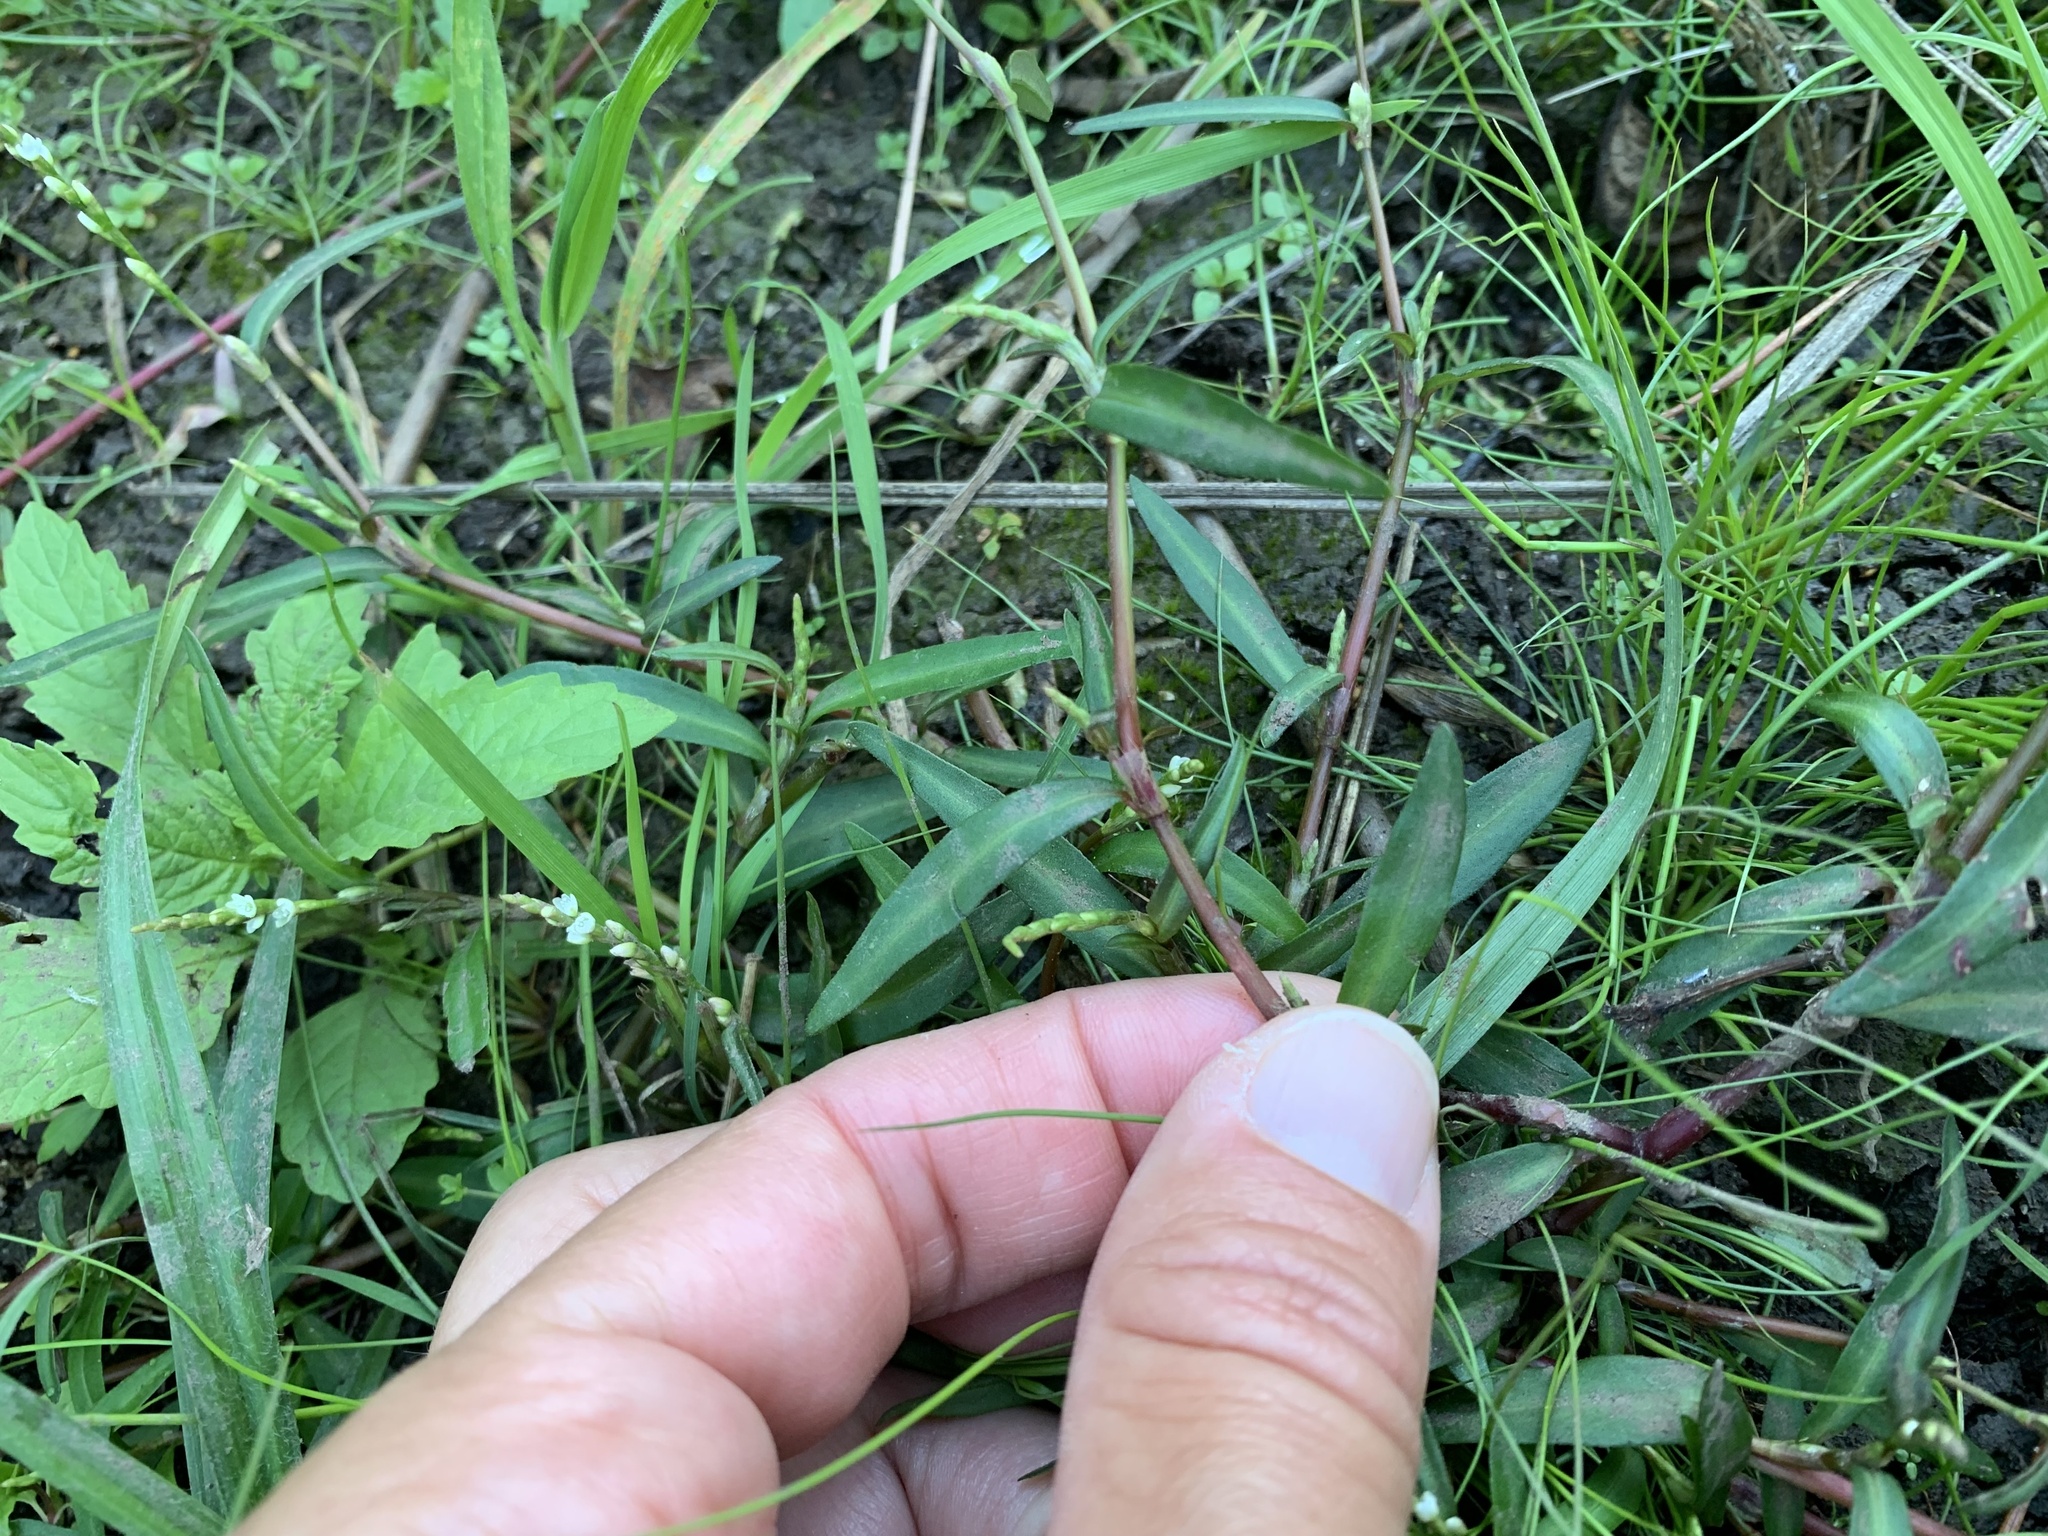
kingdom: Plantae
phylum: Tracheophyta
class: Magnoliopsida
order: Caryophyllales
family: Polygonaceae
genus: Persicaria
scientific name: Persicaria minor
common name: Small water-pepper
